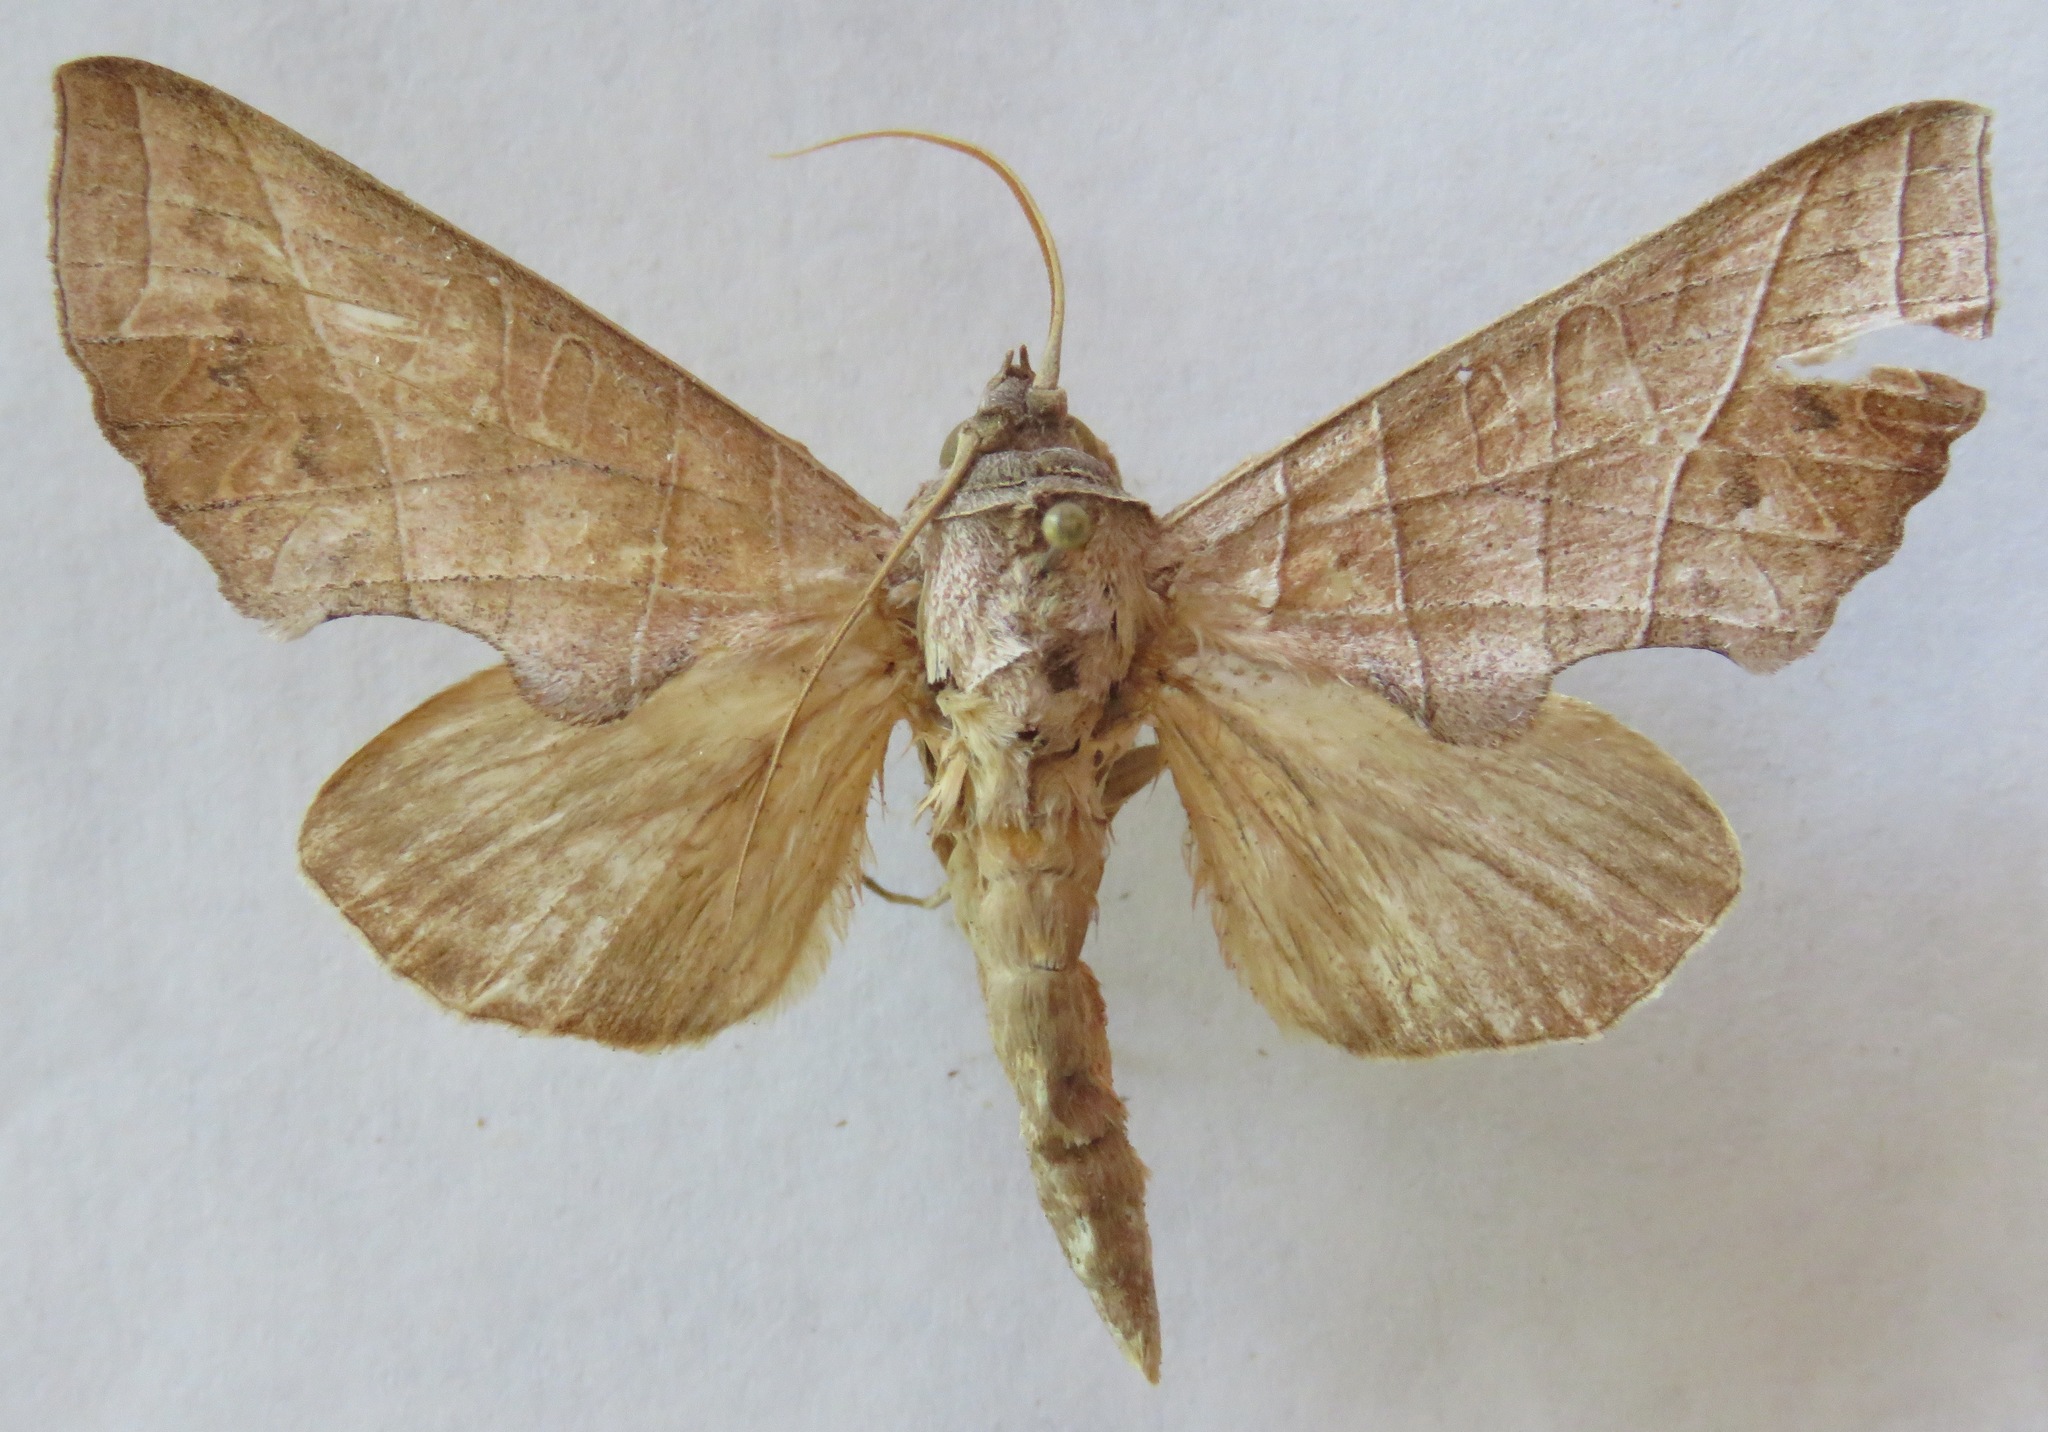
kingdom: Animalia
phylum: Arthropoda
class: Insecta
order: Lepidoptera
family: Notodontidae
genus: Antaea
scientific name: Antaea licormas
